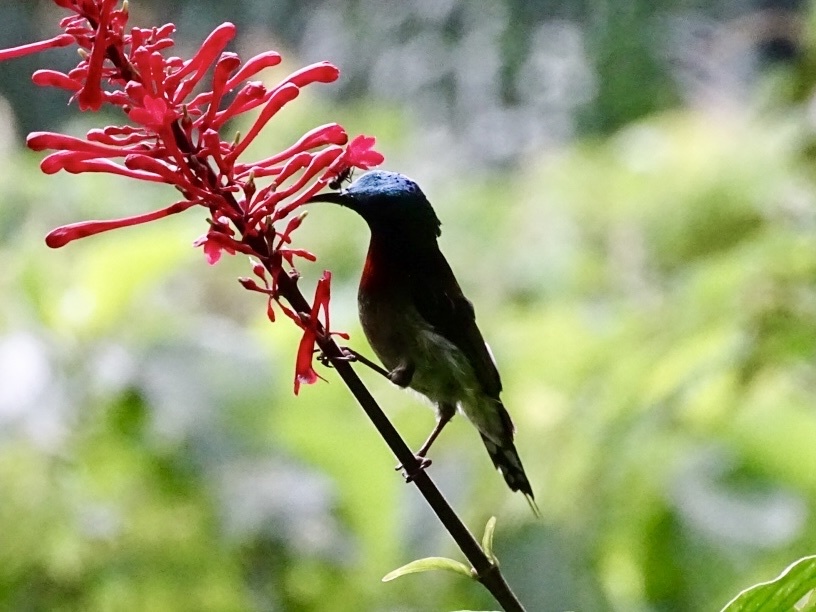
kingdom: Animalia
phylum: Chordata
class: Aves
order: Passeriformes
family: Nectariniidae
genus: Aethopyga
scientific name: Aethopyga christinae
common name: Fork-tailed sunbird
